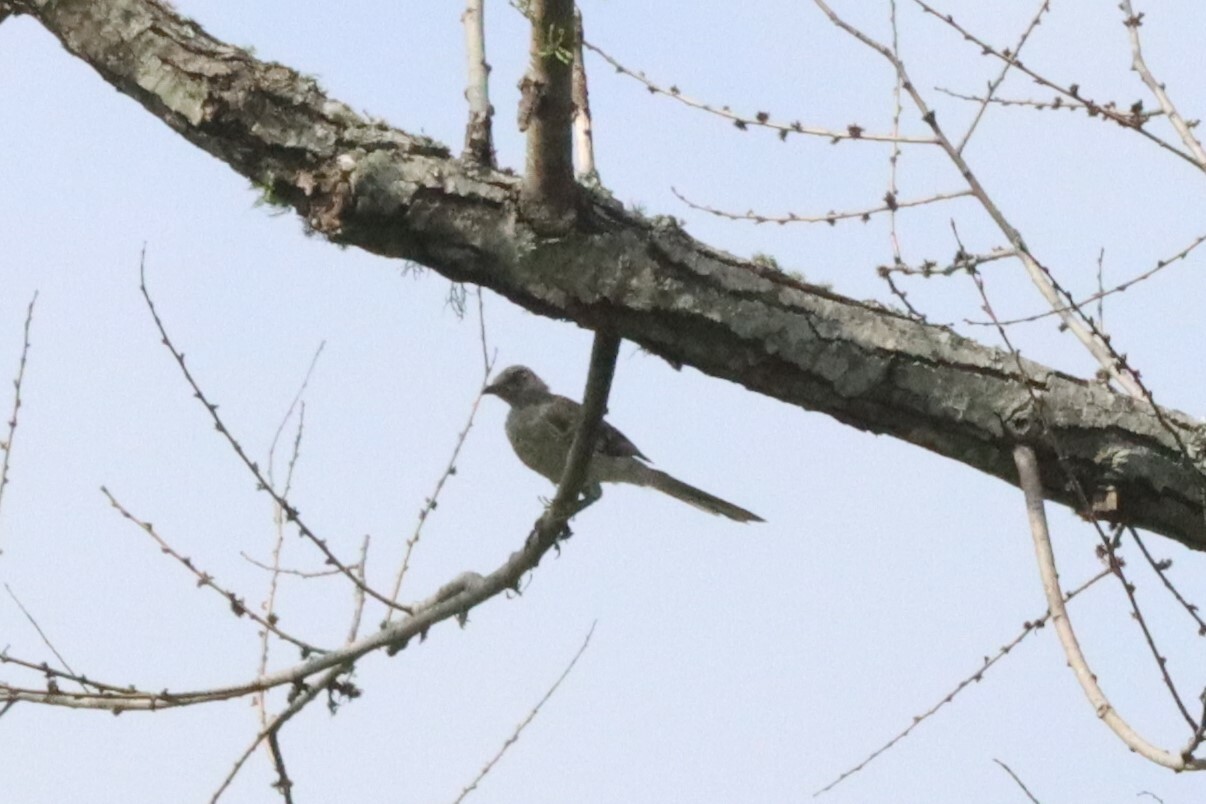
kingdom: Animalia
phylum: Chordata
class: Aves
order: Passeriformes
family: Mimidae
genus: Mimus
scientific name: Mimus polyglottos
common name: Northern mockingbird
